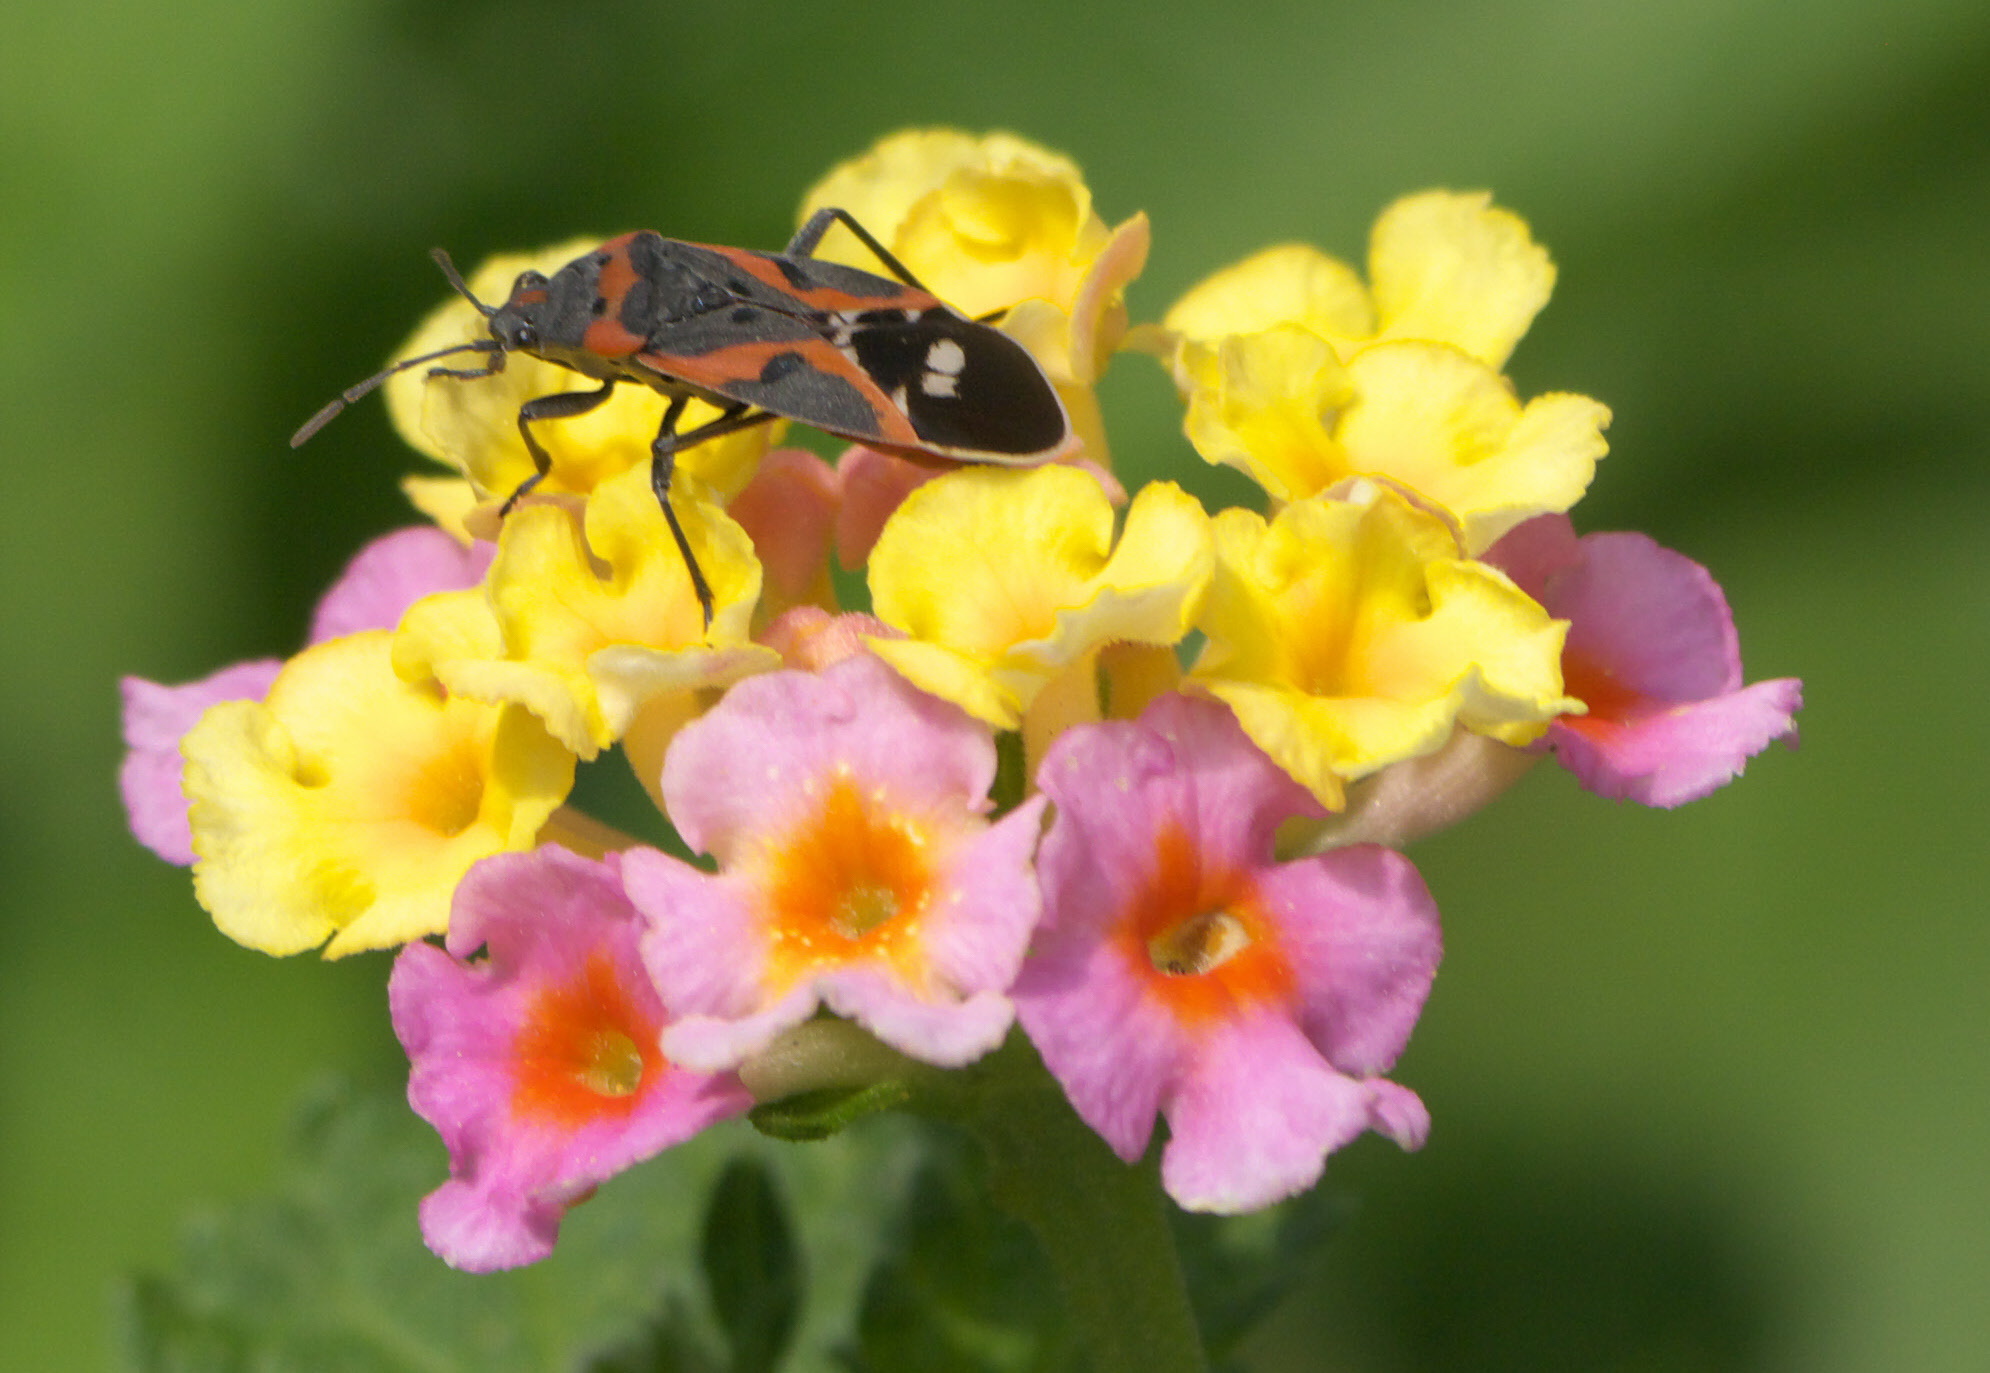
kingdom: Animalia
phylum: Arthropoda
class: Insecta
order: Hemiptera
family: Lygaeidae
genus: Lygaeus
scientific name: Lygaeus kalmii
